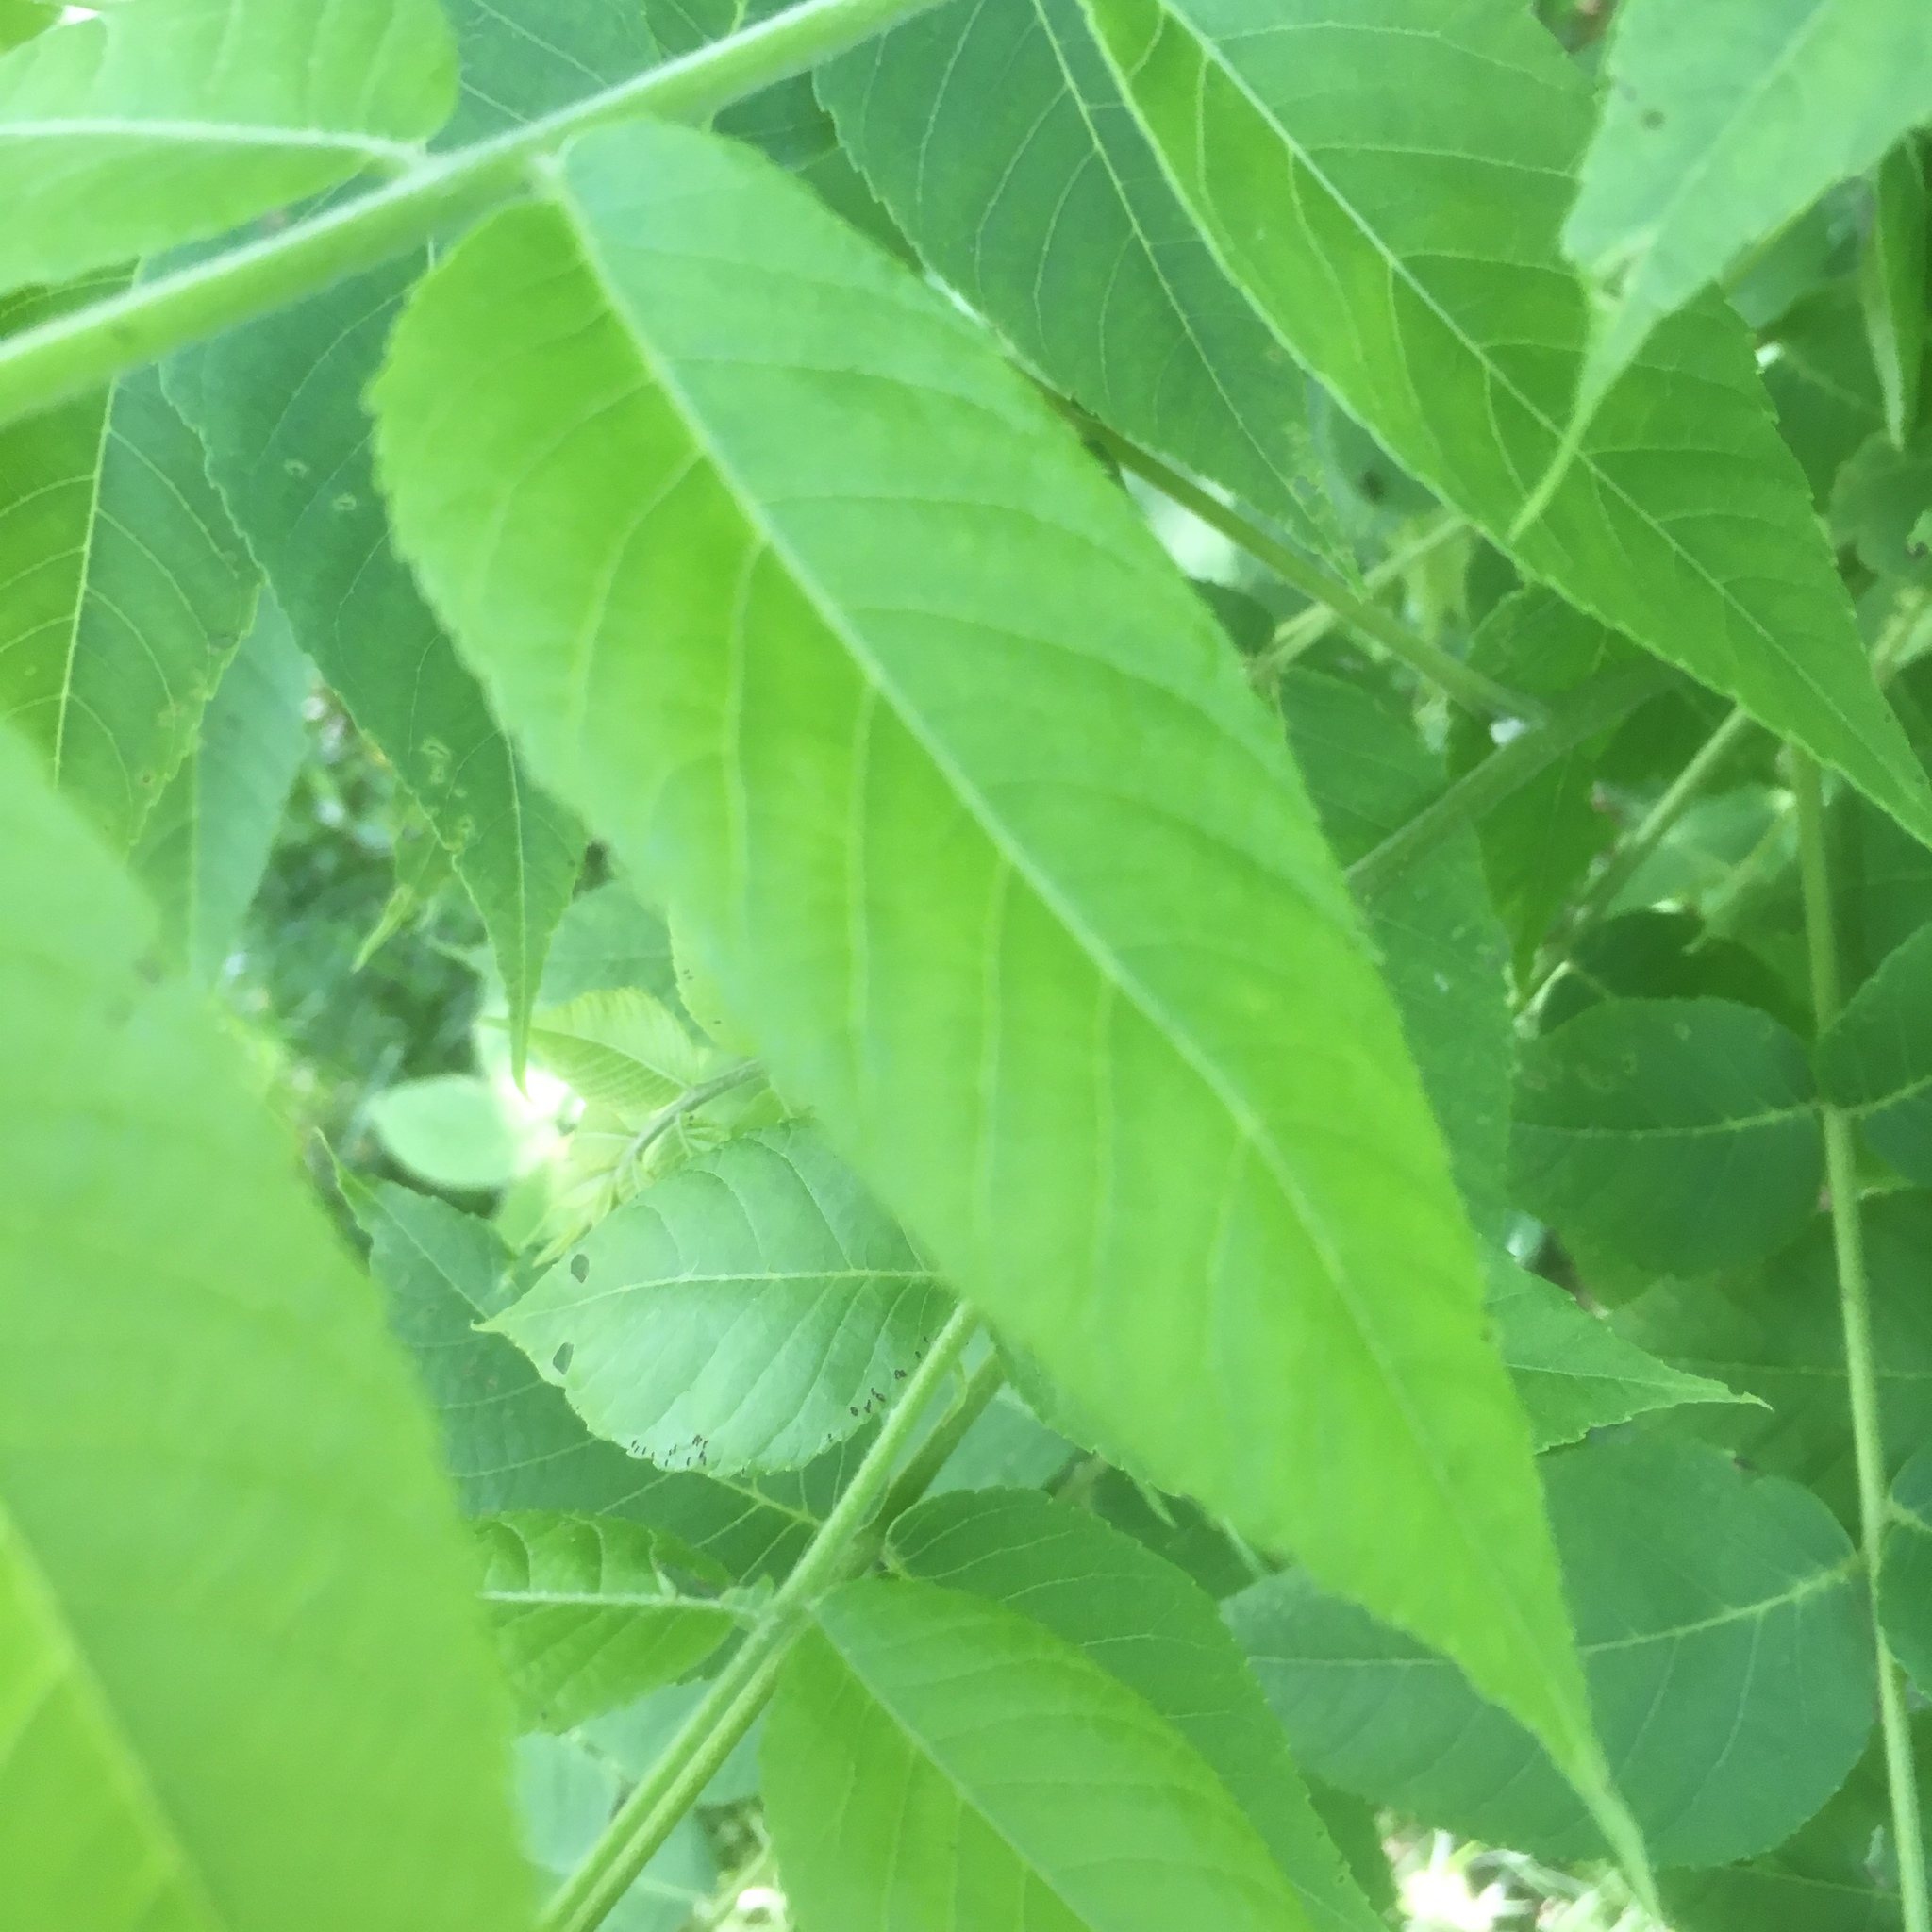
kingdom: Plantae
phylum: Tracheophyta
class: Magnoliopsida
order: Fagales
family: Juglandaceae
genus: Juglans
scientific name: Juglans nigra
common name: Black walnut
